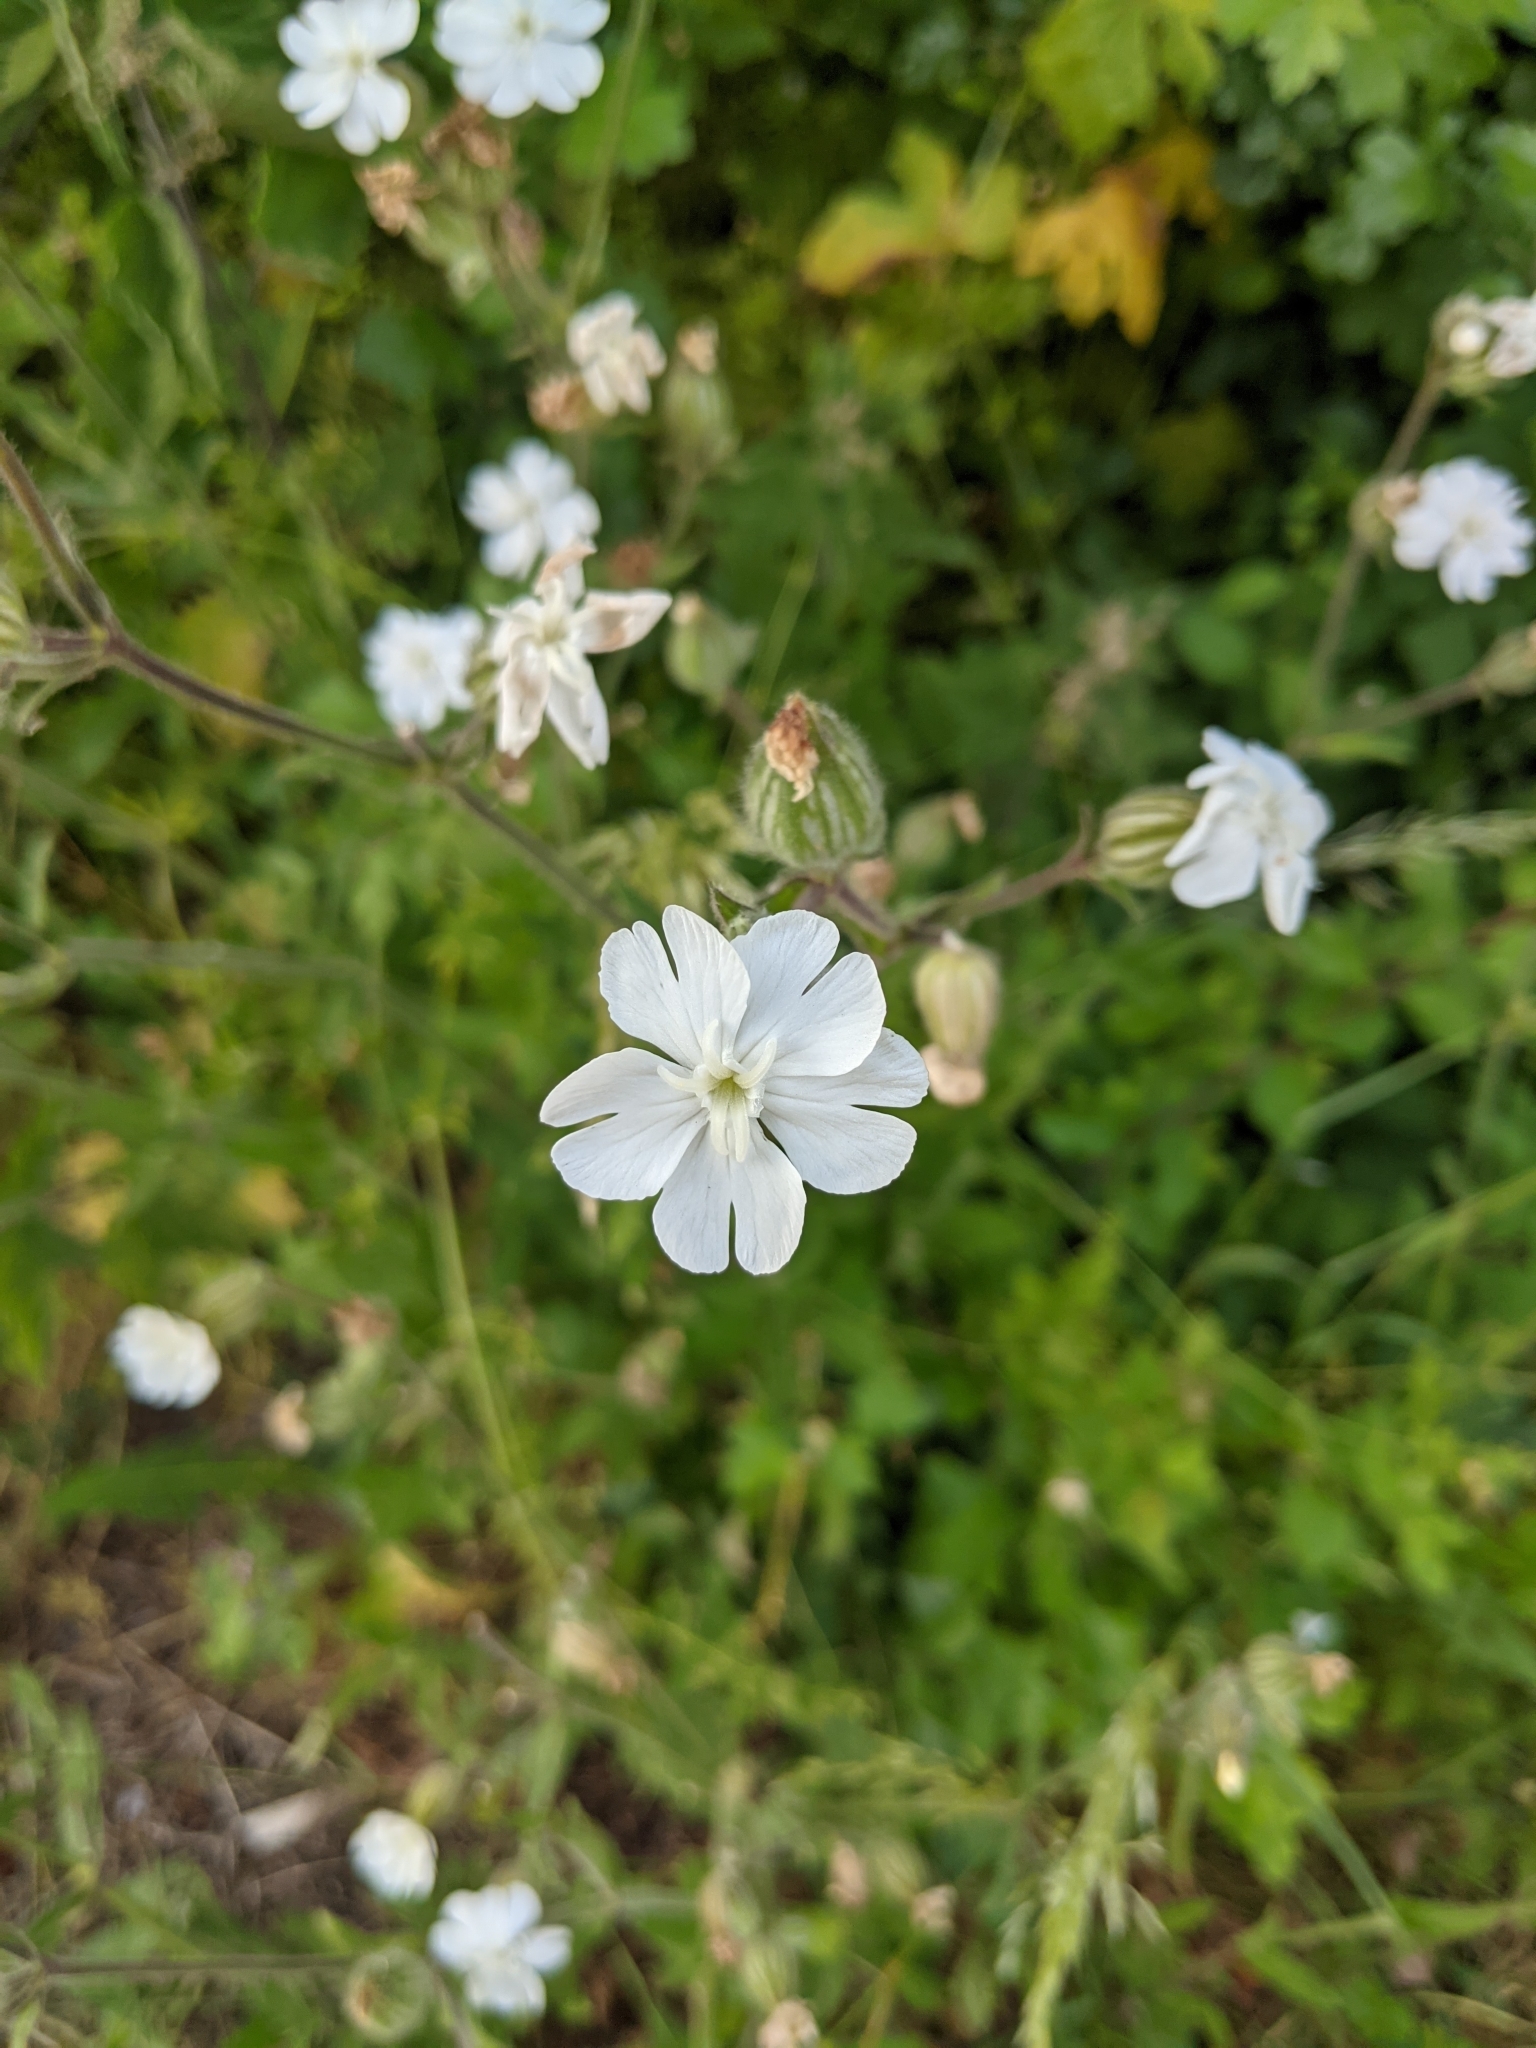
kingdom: Plantae
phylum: Tracheophyta
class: Magnoliopsida
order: Caryophyllales
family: Caryophyllaceae
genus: Silene
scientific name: Silene latifolia
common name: White campion
